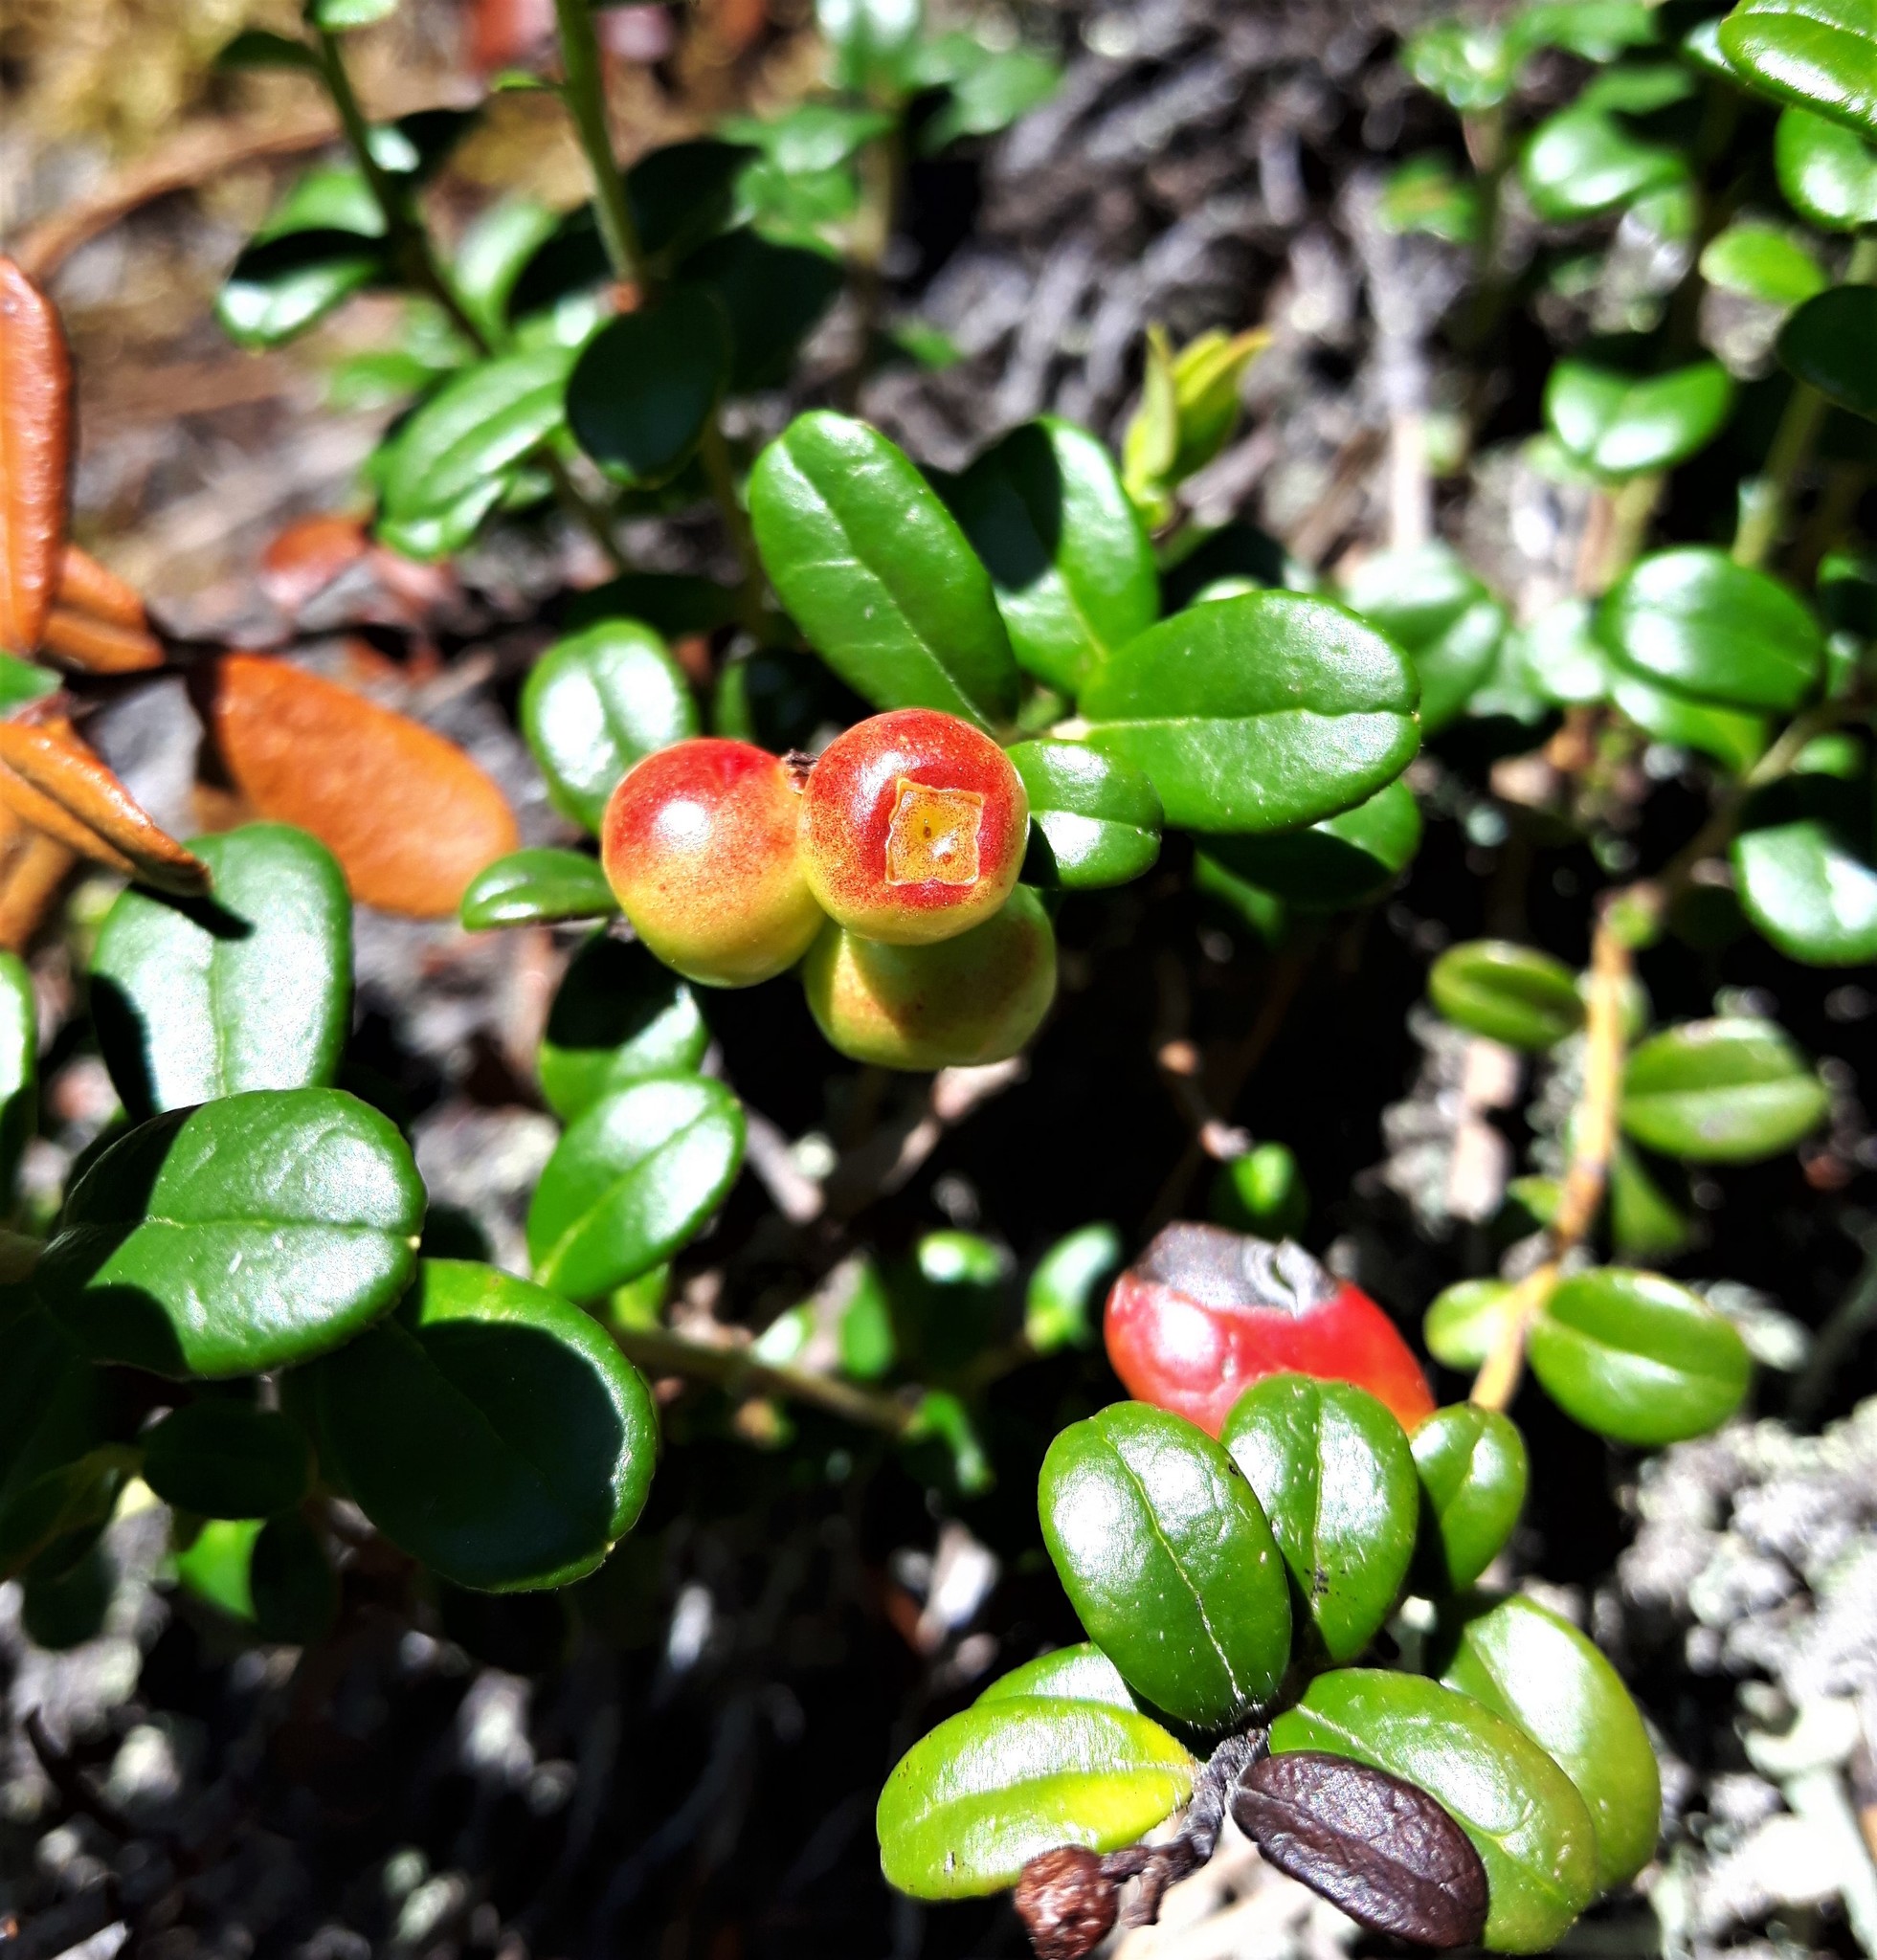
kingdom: Plantae
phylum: Tracheophyta
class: Magnoliopsida
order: Ericales
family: Ericaceae
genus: Vaccinium
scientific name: Vaccinium vitis-idaea
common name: Cowberry
